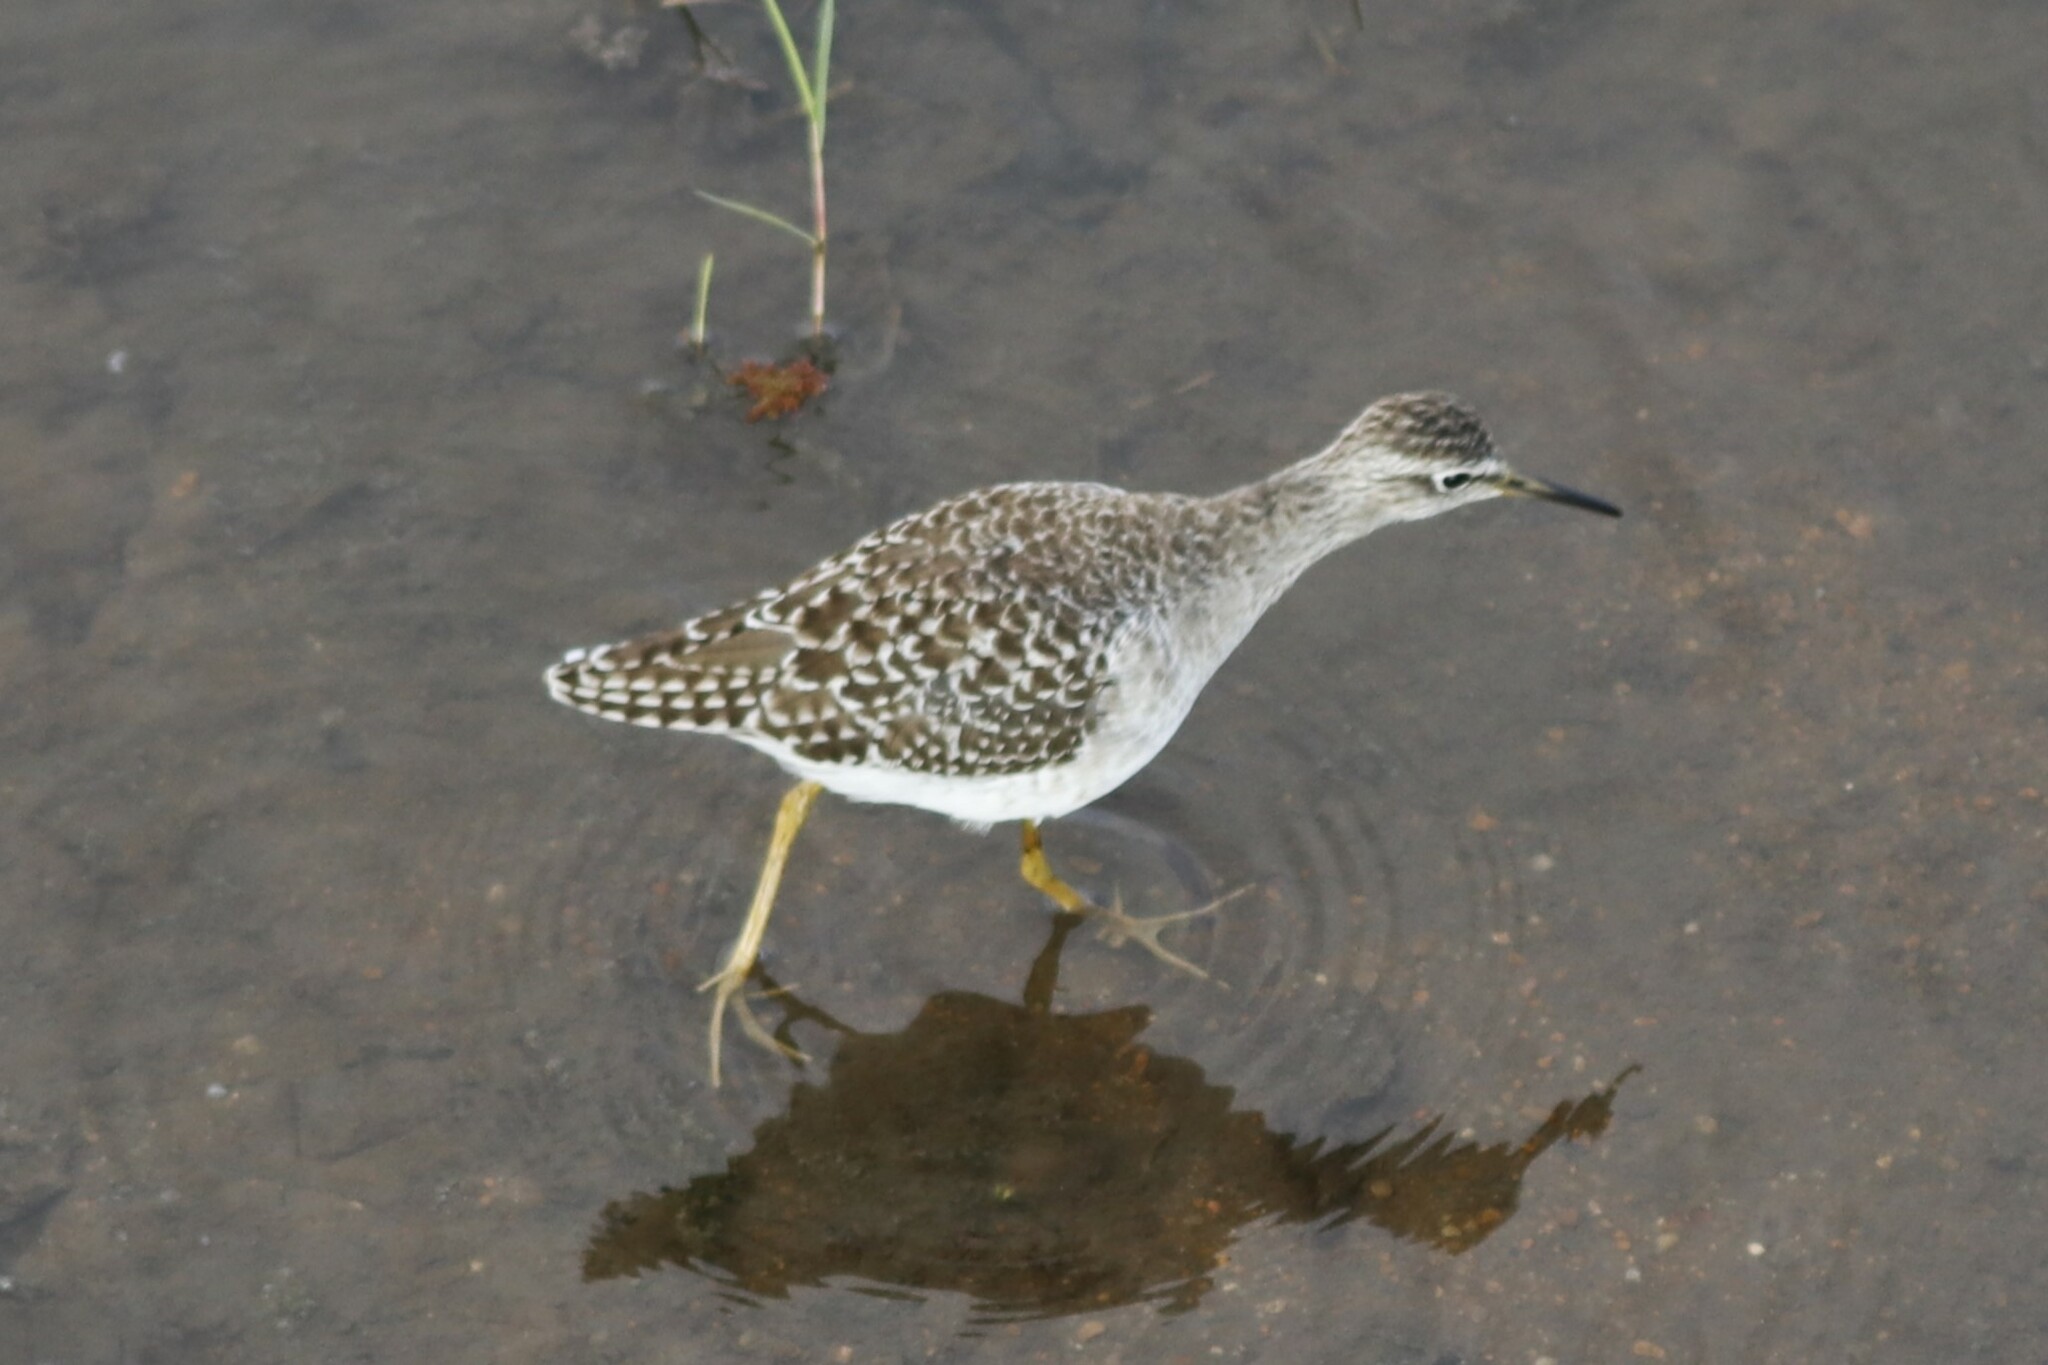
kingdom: Animalia
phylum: Chordata
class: Aves
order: Charadriiformes
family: Scolopacidae
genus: Tringa
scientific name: Tringa glareola
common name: Wood sandpiper
